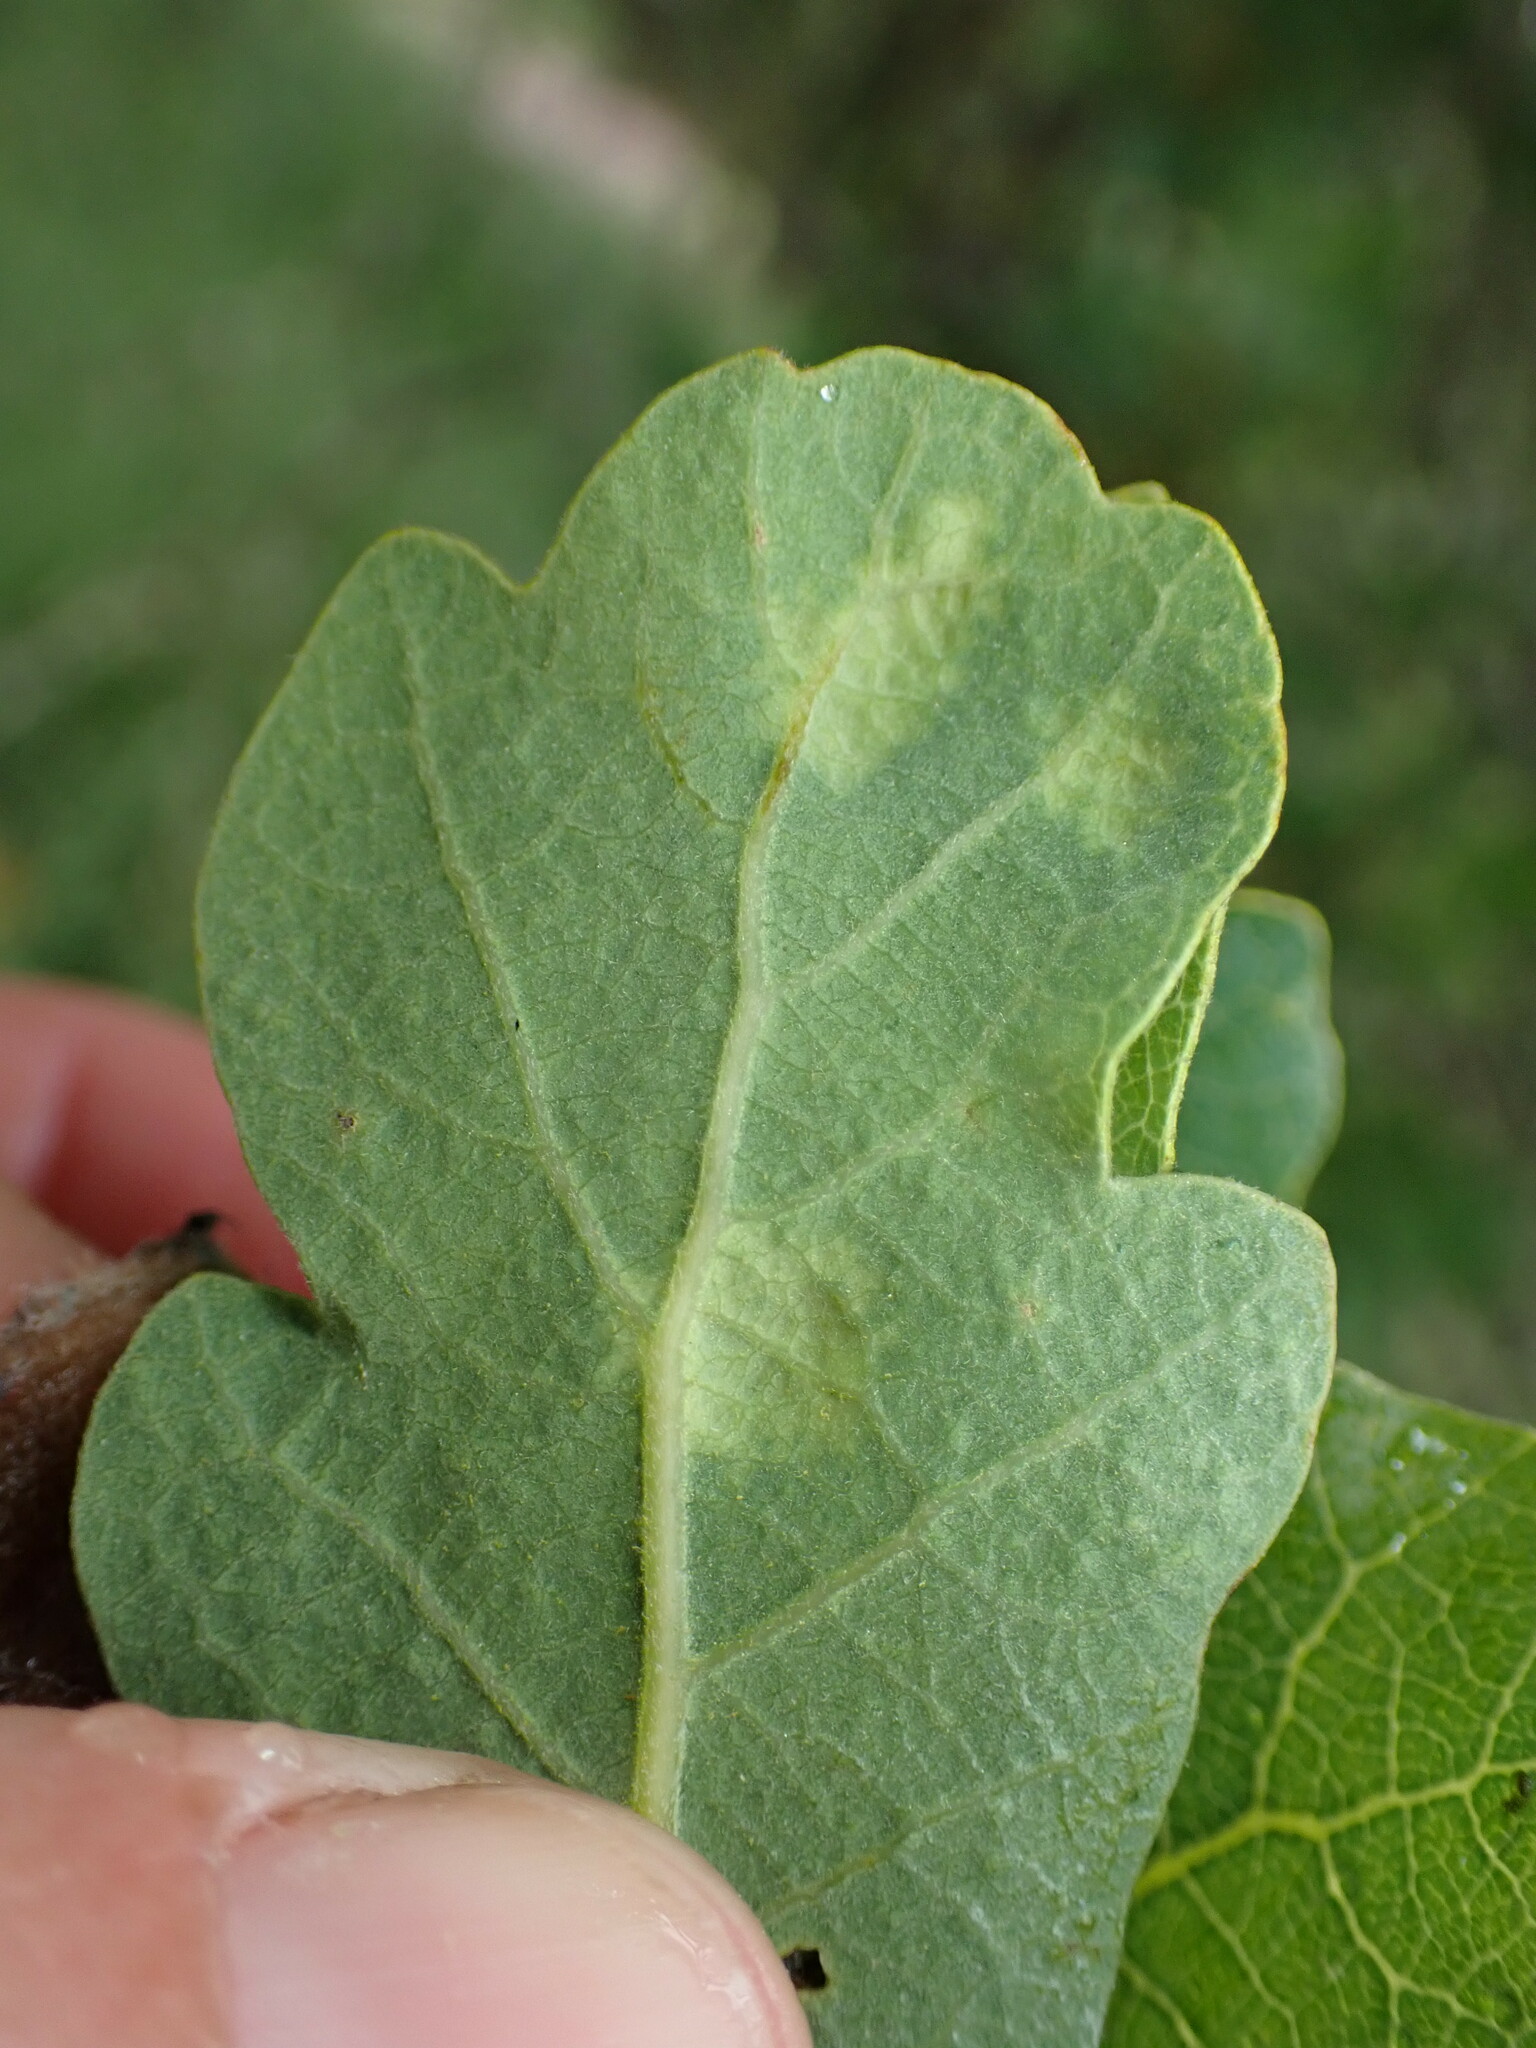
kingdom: Fungi
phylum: Ascomycota
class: Taphrinomycetes
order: Taphrinales
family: Taphrinaceae
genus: Taphrina
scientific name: Taphrina caerulescens
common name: Oak leaf blister
